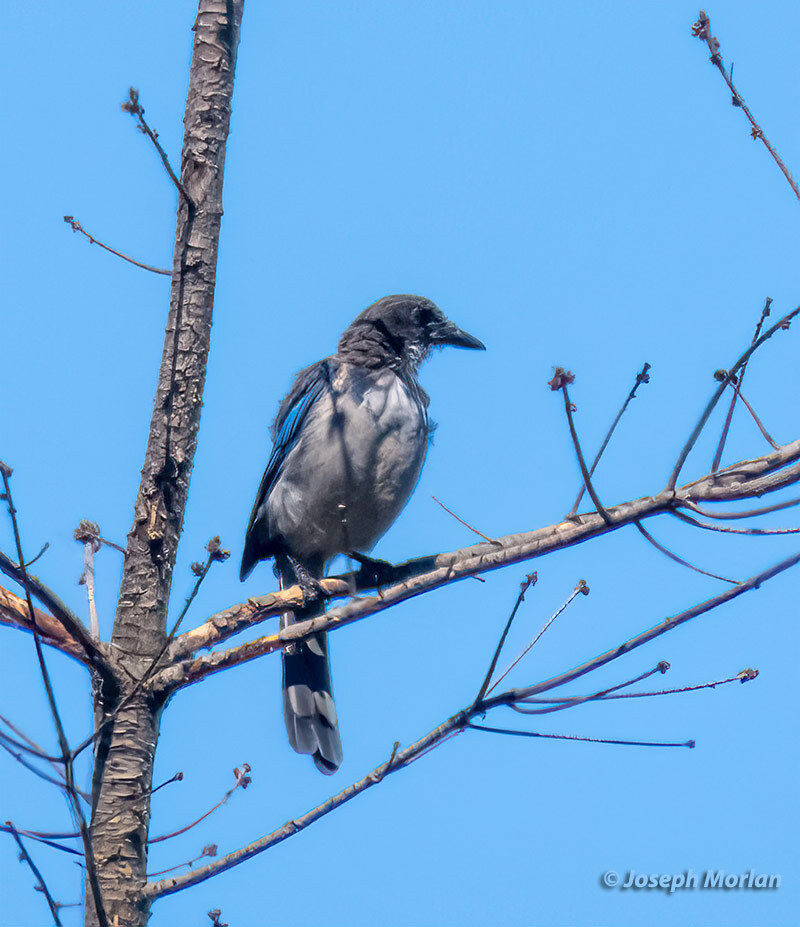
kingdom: Animalia
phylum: Chordata
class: Aves
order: Passeriformes
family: Corvidae
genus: Aphelocoma
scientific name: Aphelocoma californica
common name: California scrub-jay
